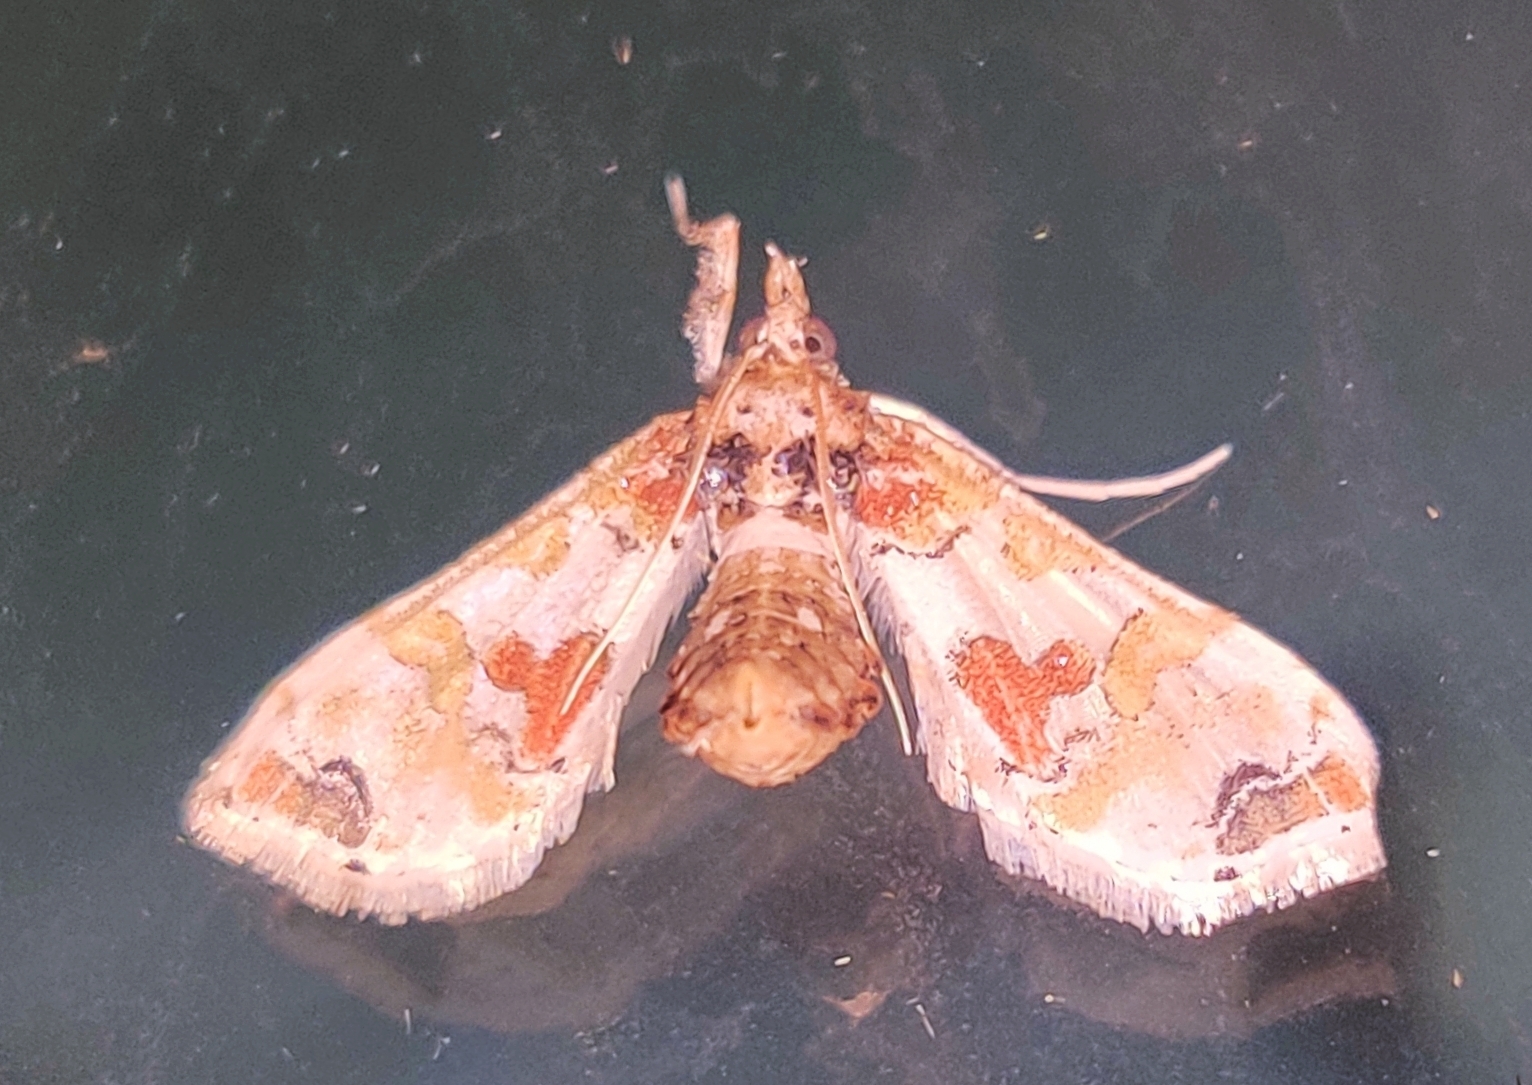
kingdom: Animalia
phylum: Arthropoda
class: Insecta
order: Lepidoptera
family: Crambidae
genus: Leucinodes
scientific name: Leucinodes orbonalis
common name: Aubergine pearl
